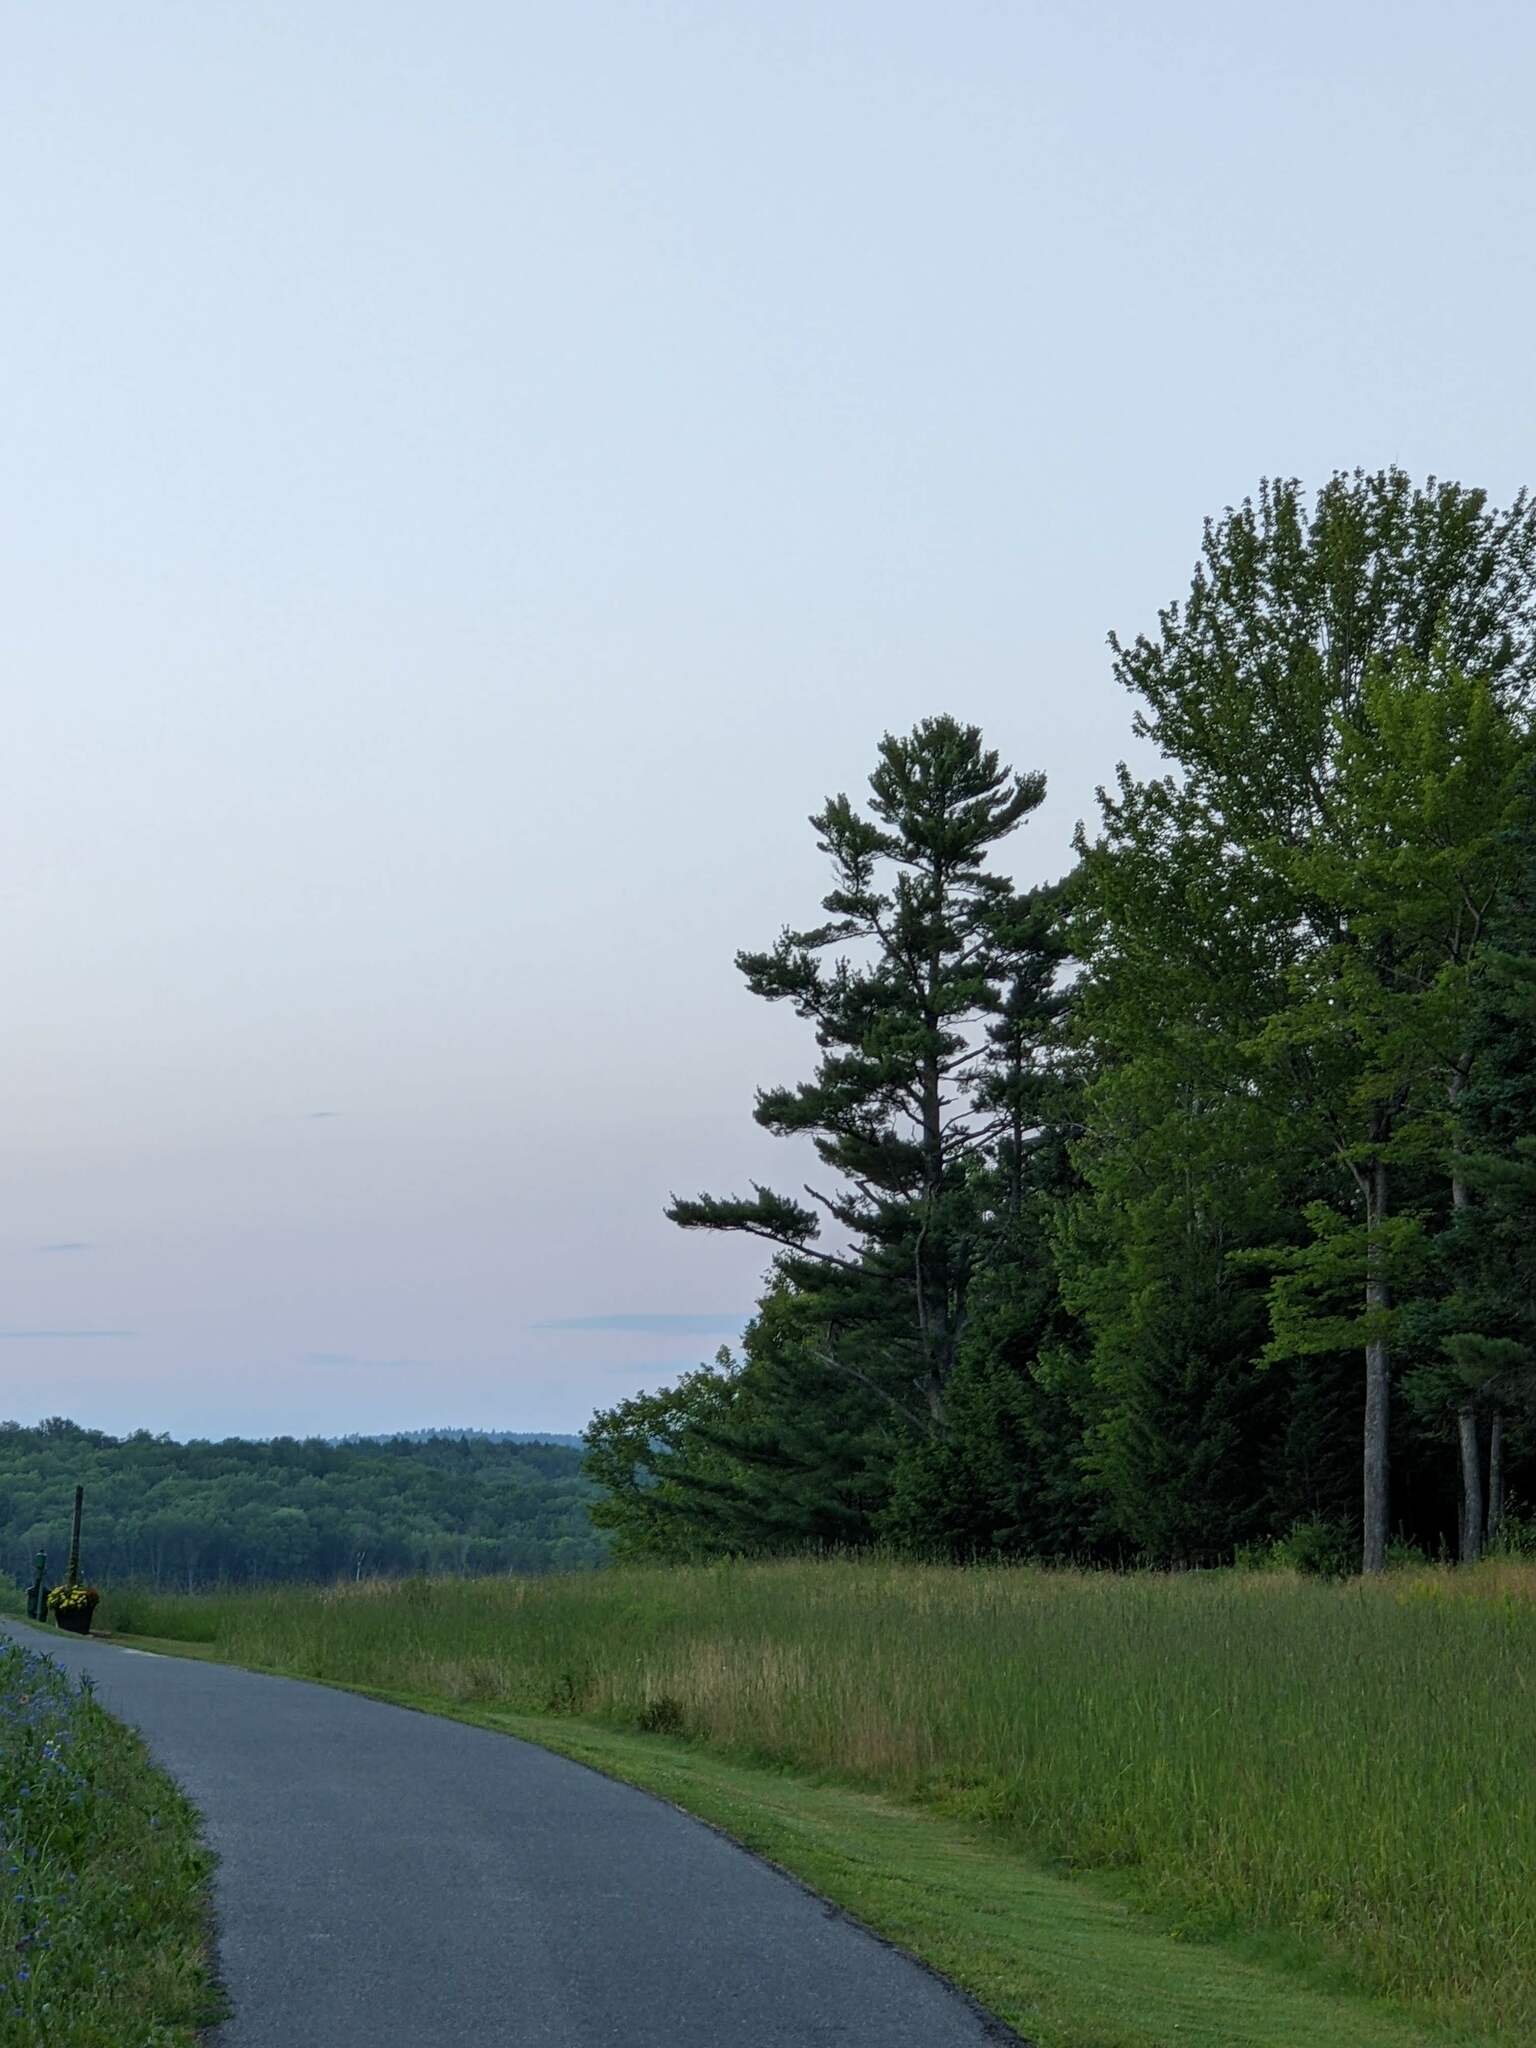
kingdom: Plantae
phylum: Tracheophyta
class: Pinopsida
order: Pinales
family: Pinaceae
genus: Pinus
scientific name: Pinus strobus
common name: Weymouth pine
